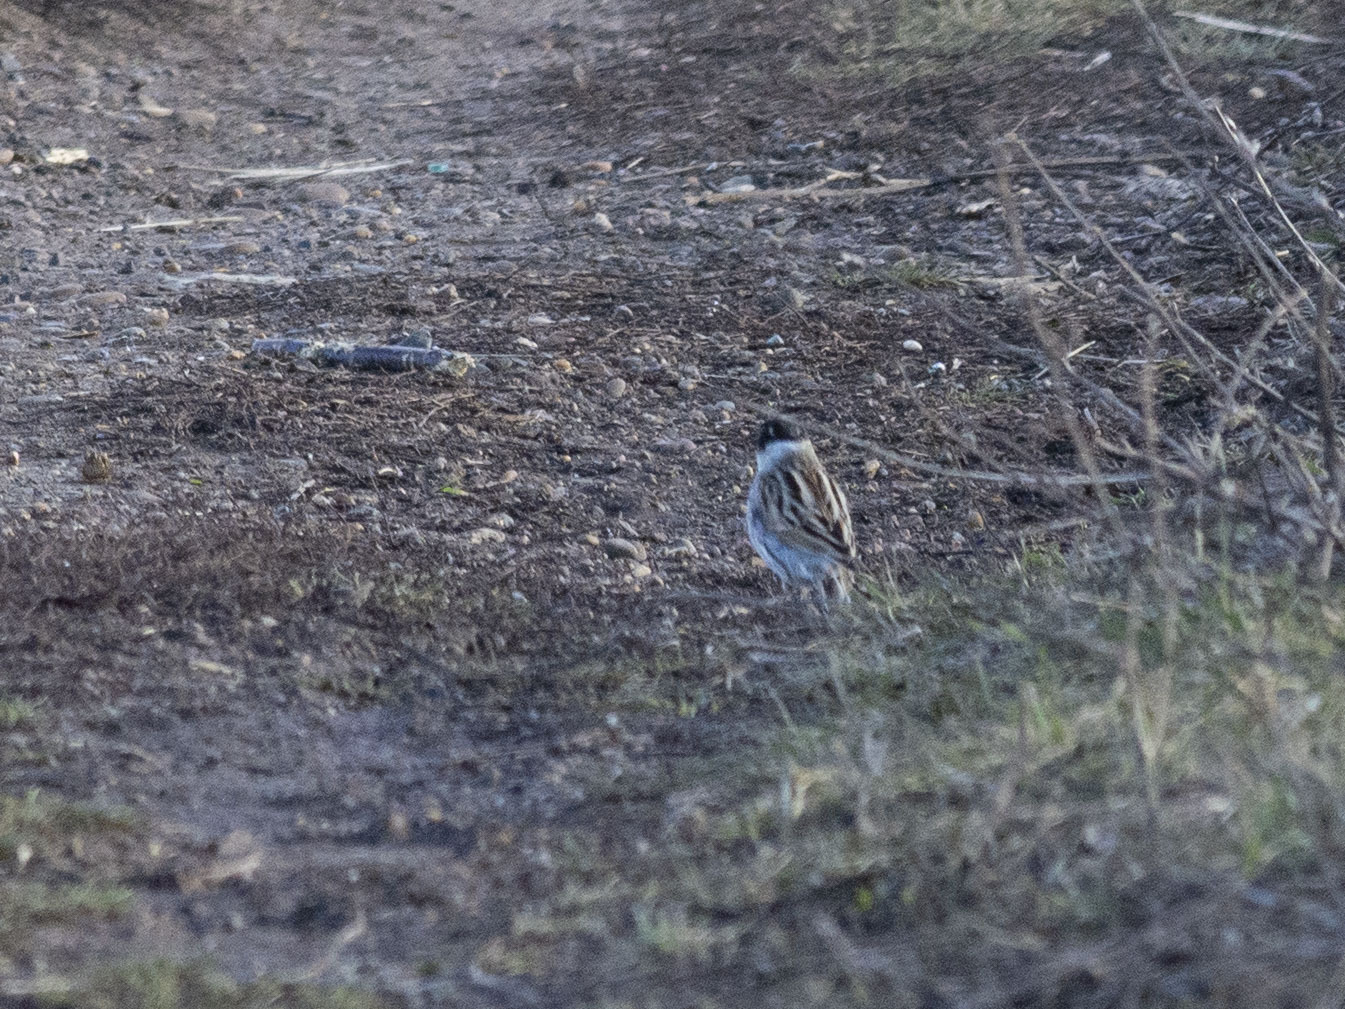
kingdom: Animalia
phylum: Chordata
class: Aves
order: Passeriformes
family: Emberizidae
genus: Emberiza
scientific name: Emberiza schoeniclus
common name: Reed bunting
